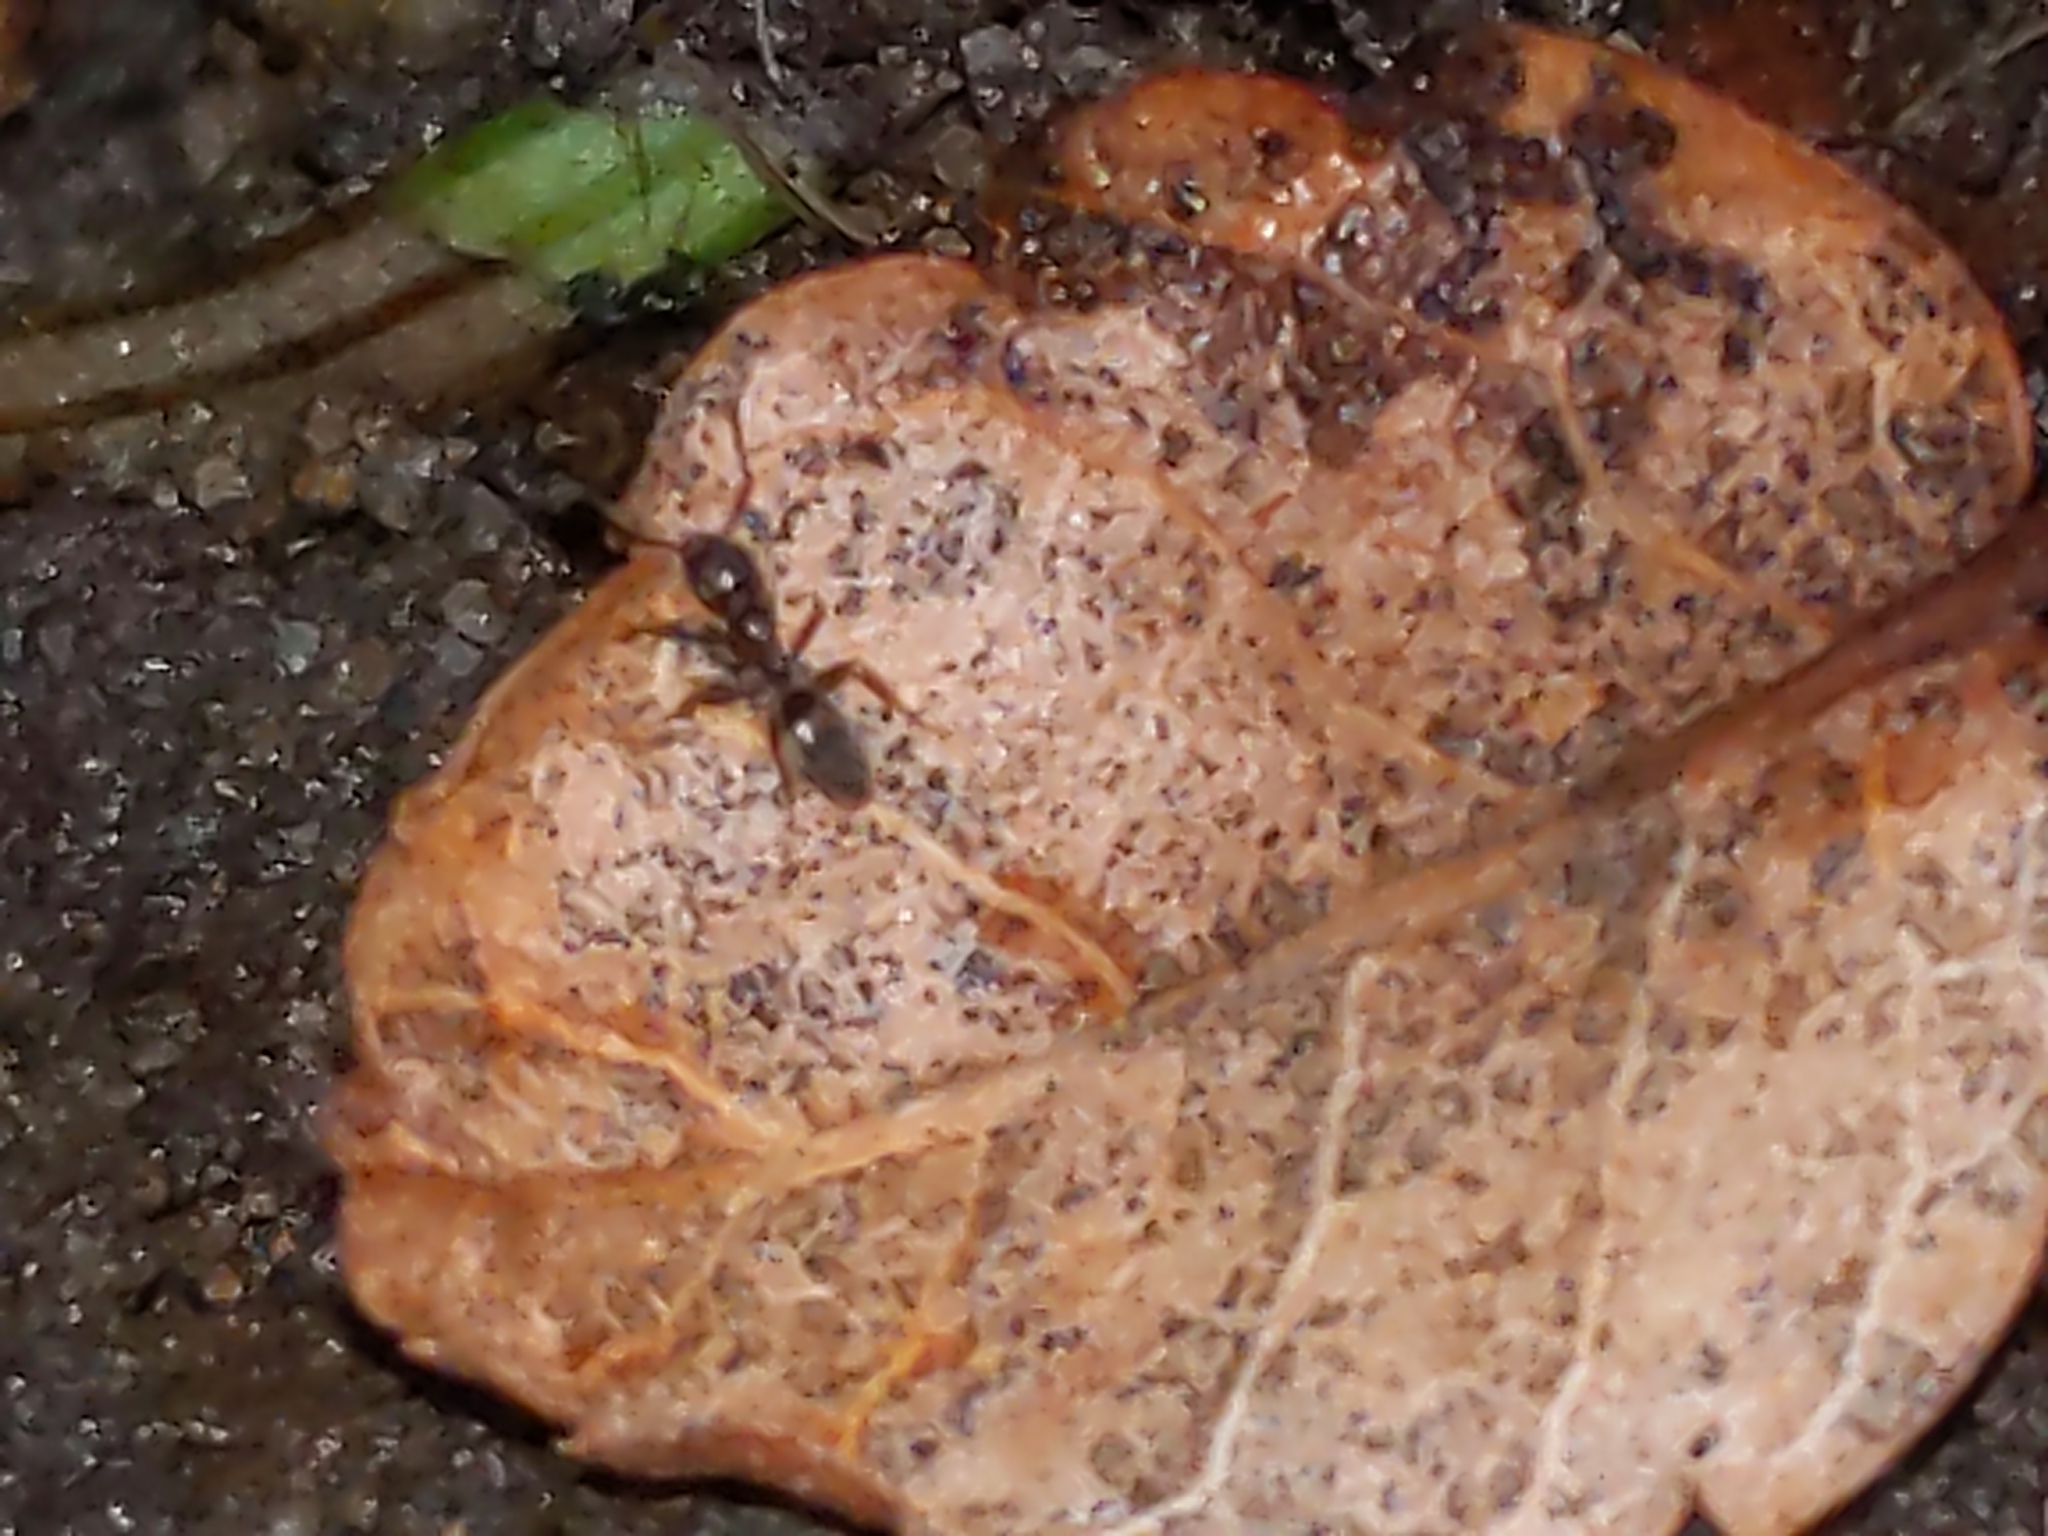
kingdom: Animalia
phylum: Arthropoda
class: Insecta
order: Hymenoptera
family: Formicidae
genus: Tapinoma
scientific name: Tapinoma sessile
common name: Odorous house ant
